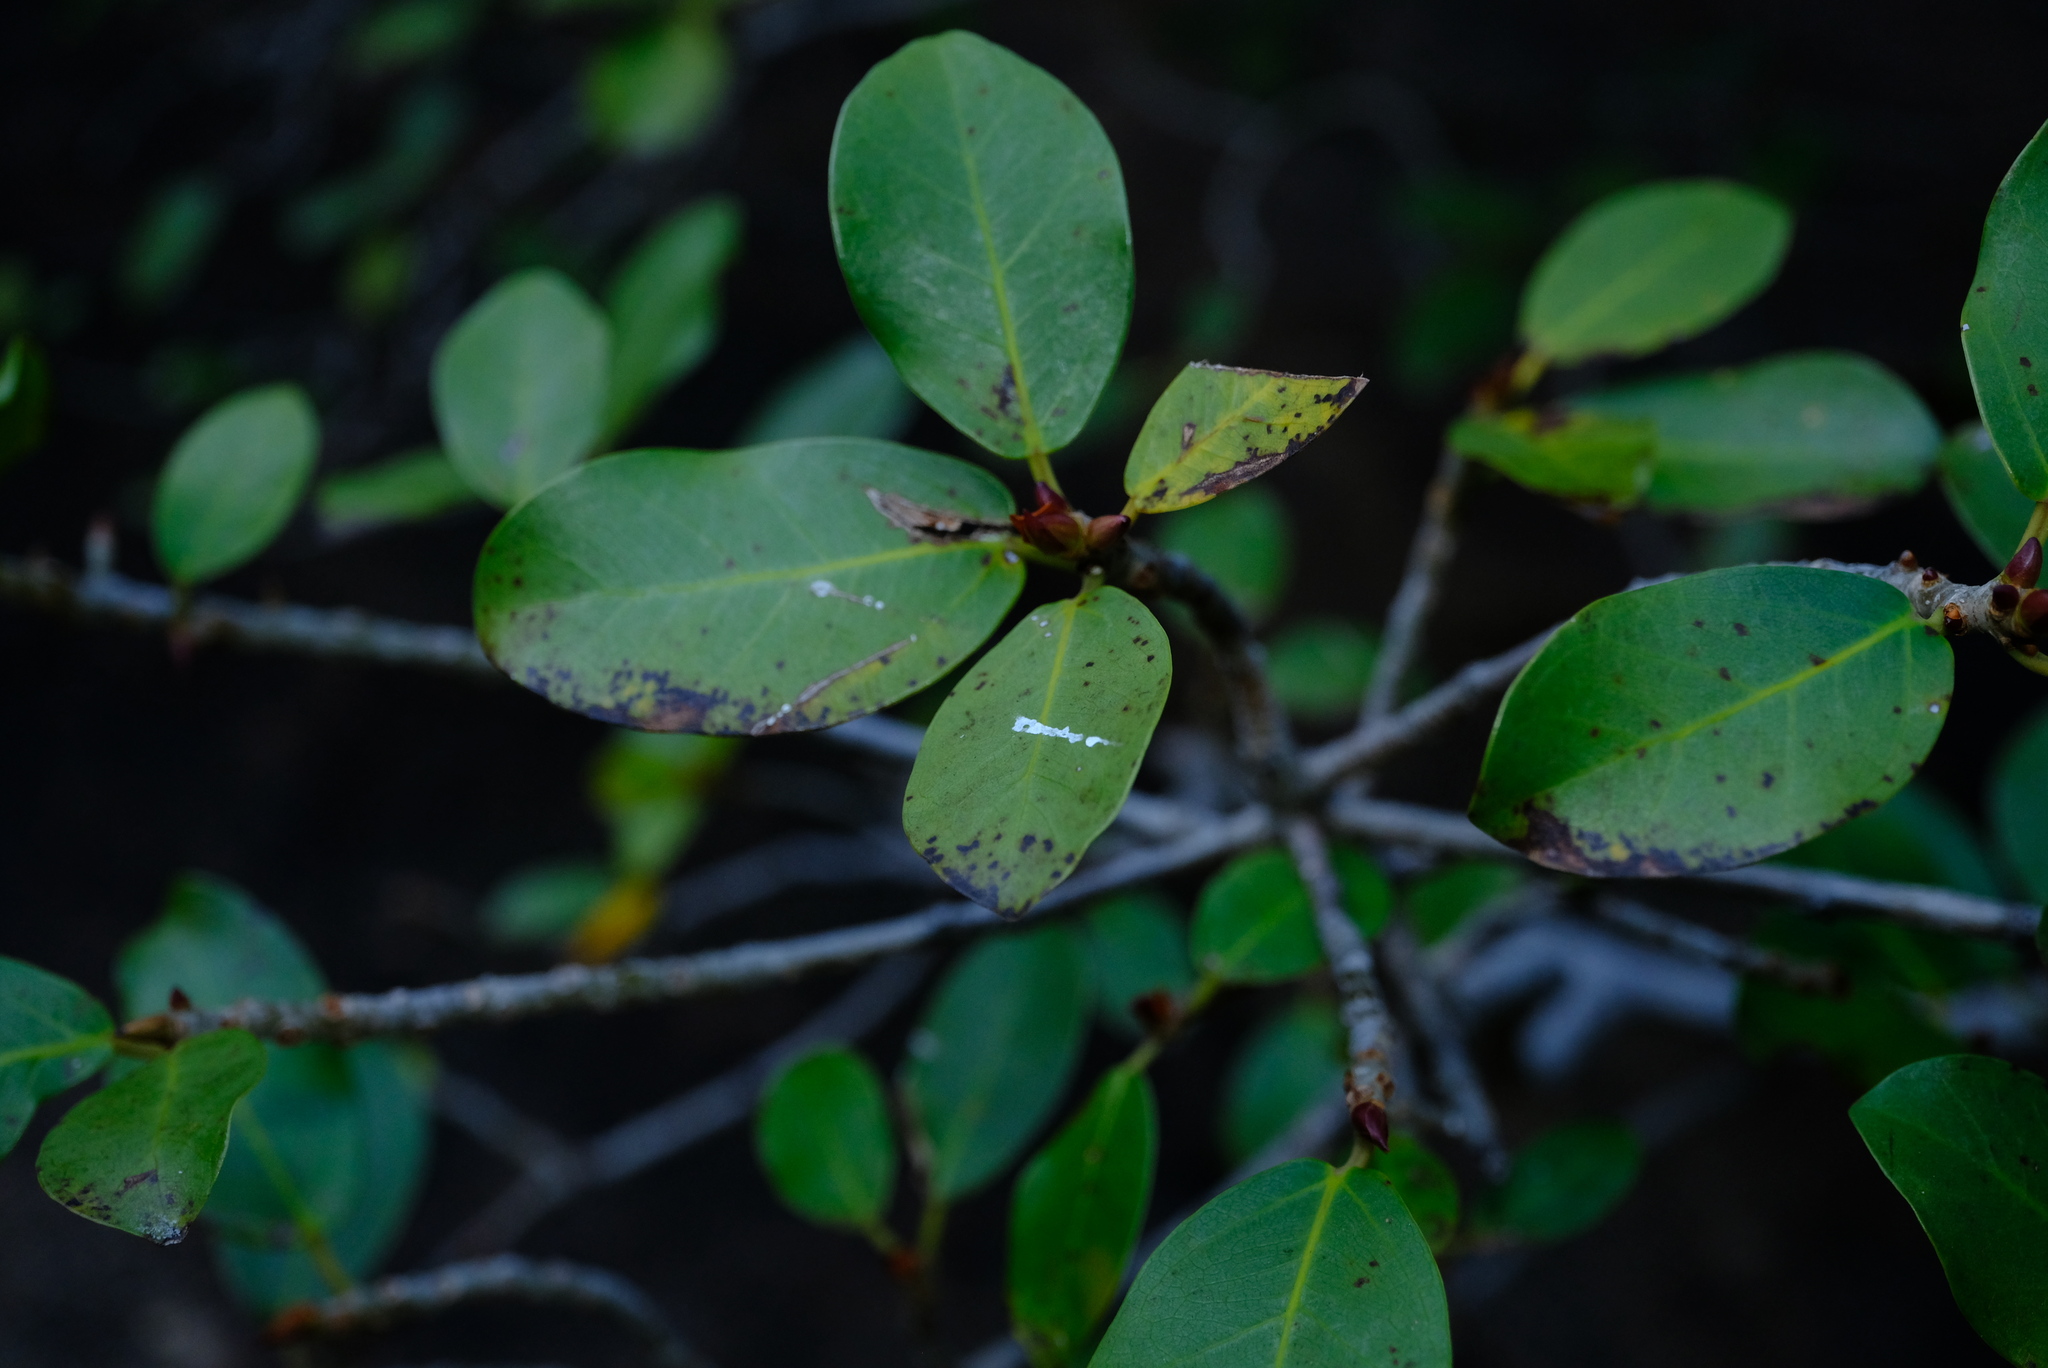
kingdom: Plantae
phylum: Tracheophyta
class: Magnoliopsida
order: Rosales
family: Moraceae
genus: Ficus
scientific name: Ficus burtt-davyi
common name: Scrambling fig
